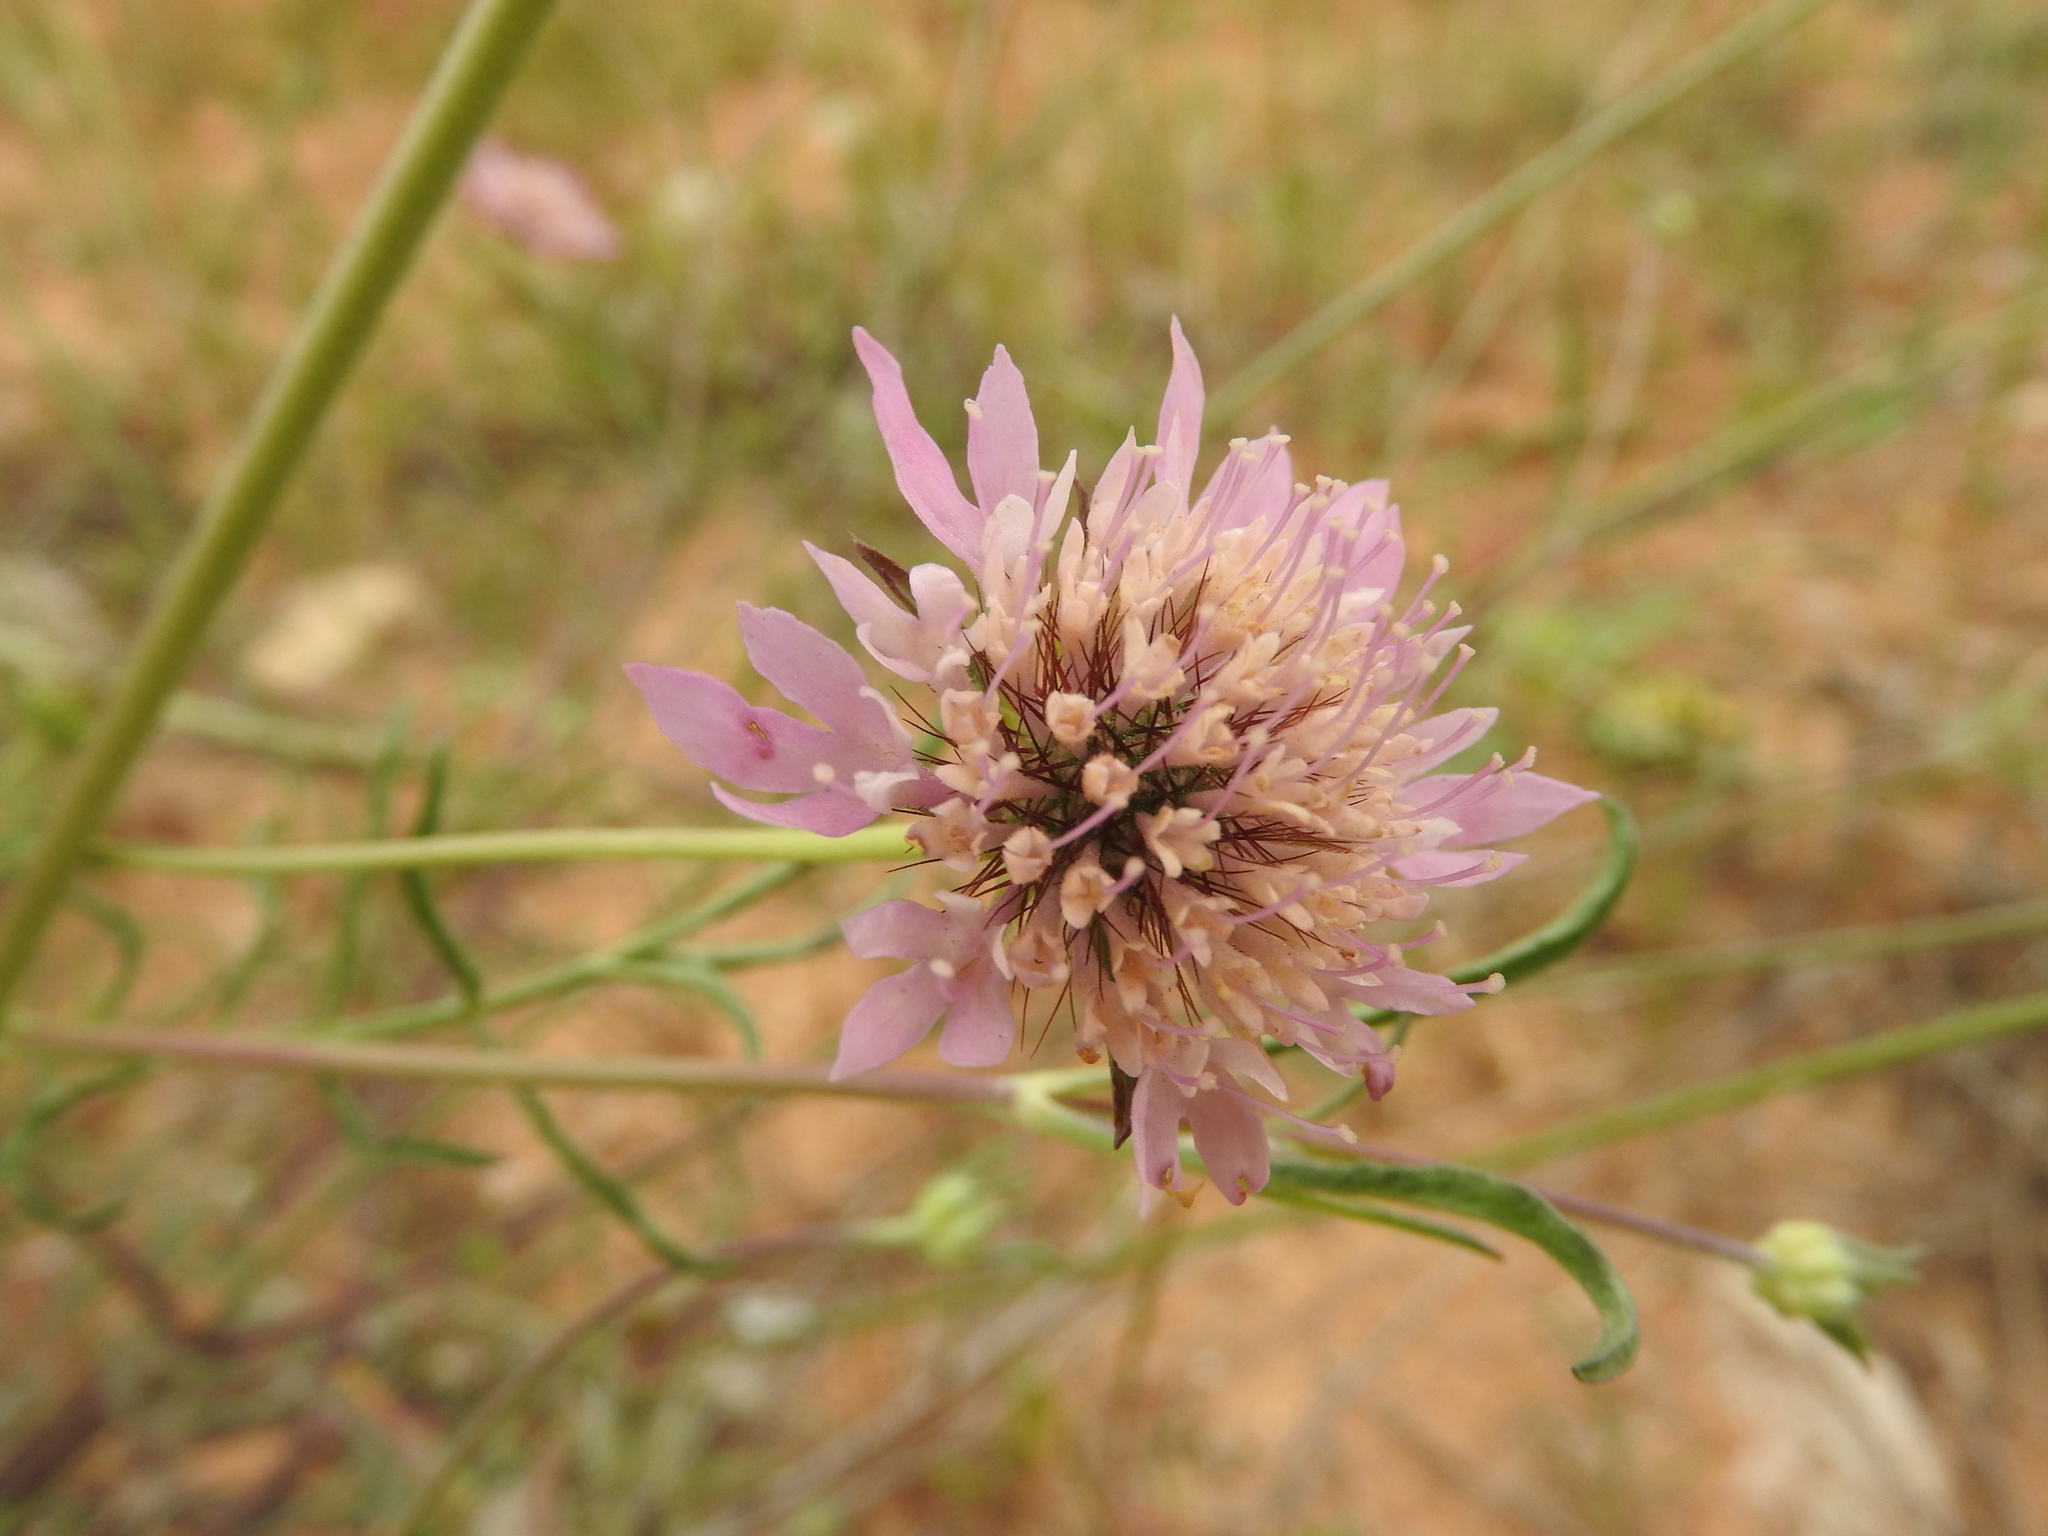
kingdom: Plantae
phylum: Tracheophyta
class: Magnoliopsida
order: Dipsacales
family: Caprifoliaceae
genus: Sixalix
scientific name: Sixalix maritima
